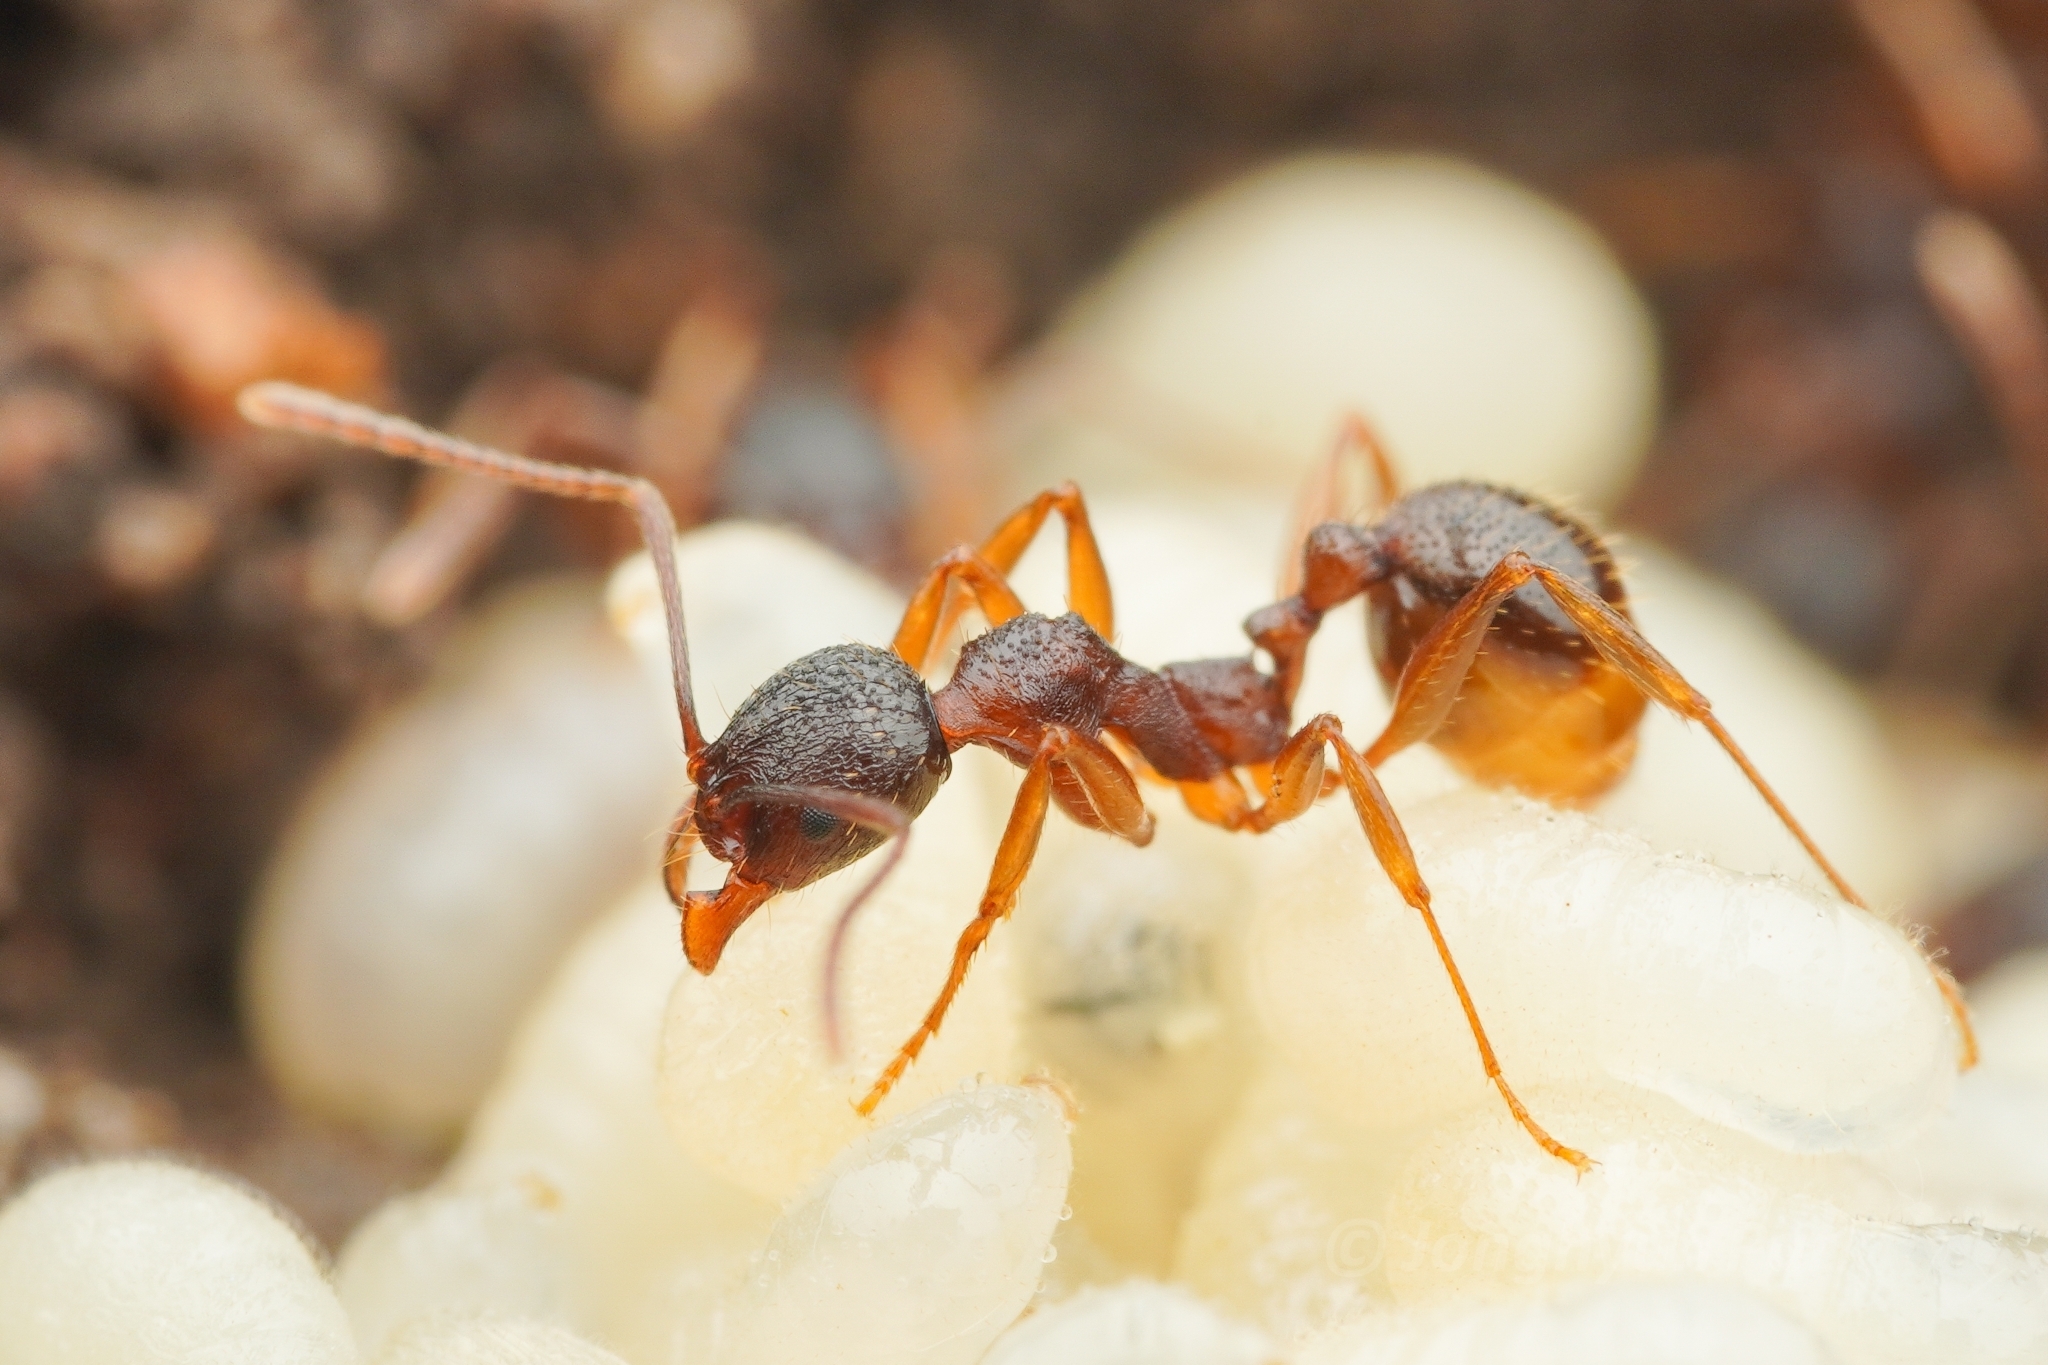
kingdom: Animalia
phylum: Arthropoda
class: Insecta
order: Hymenoptera
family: Formicidae
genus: Aphaenogaster
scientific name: Aphaenogaster japonica
